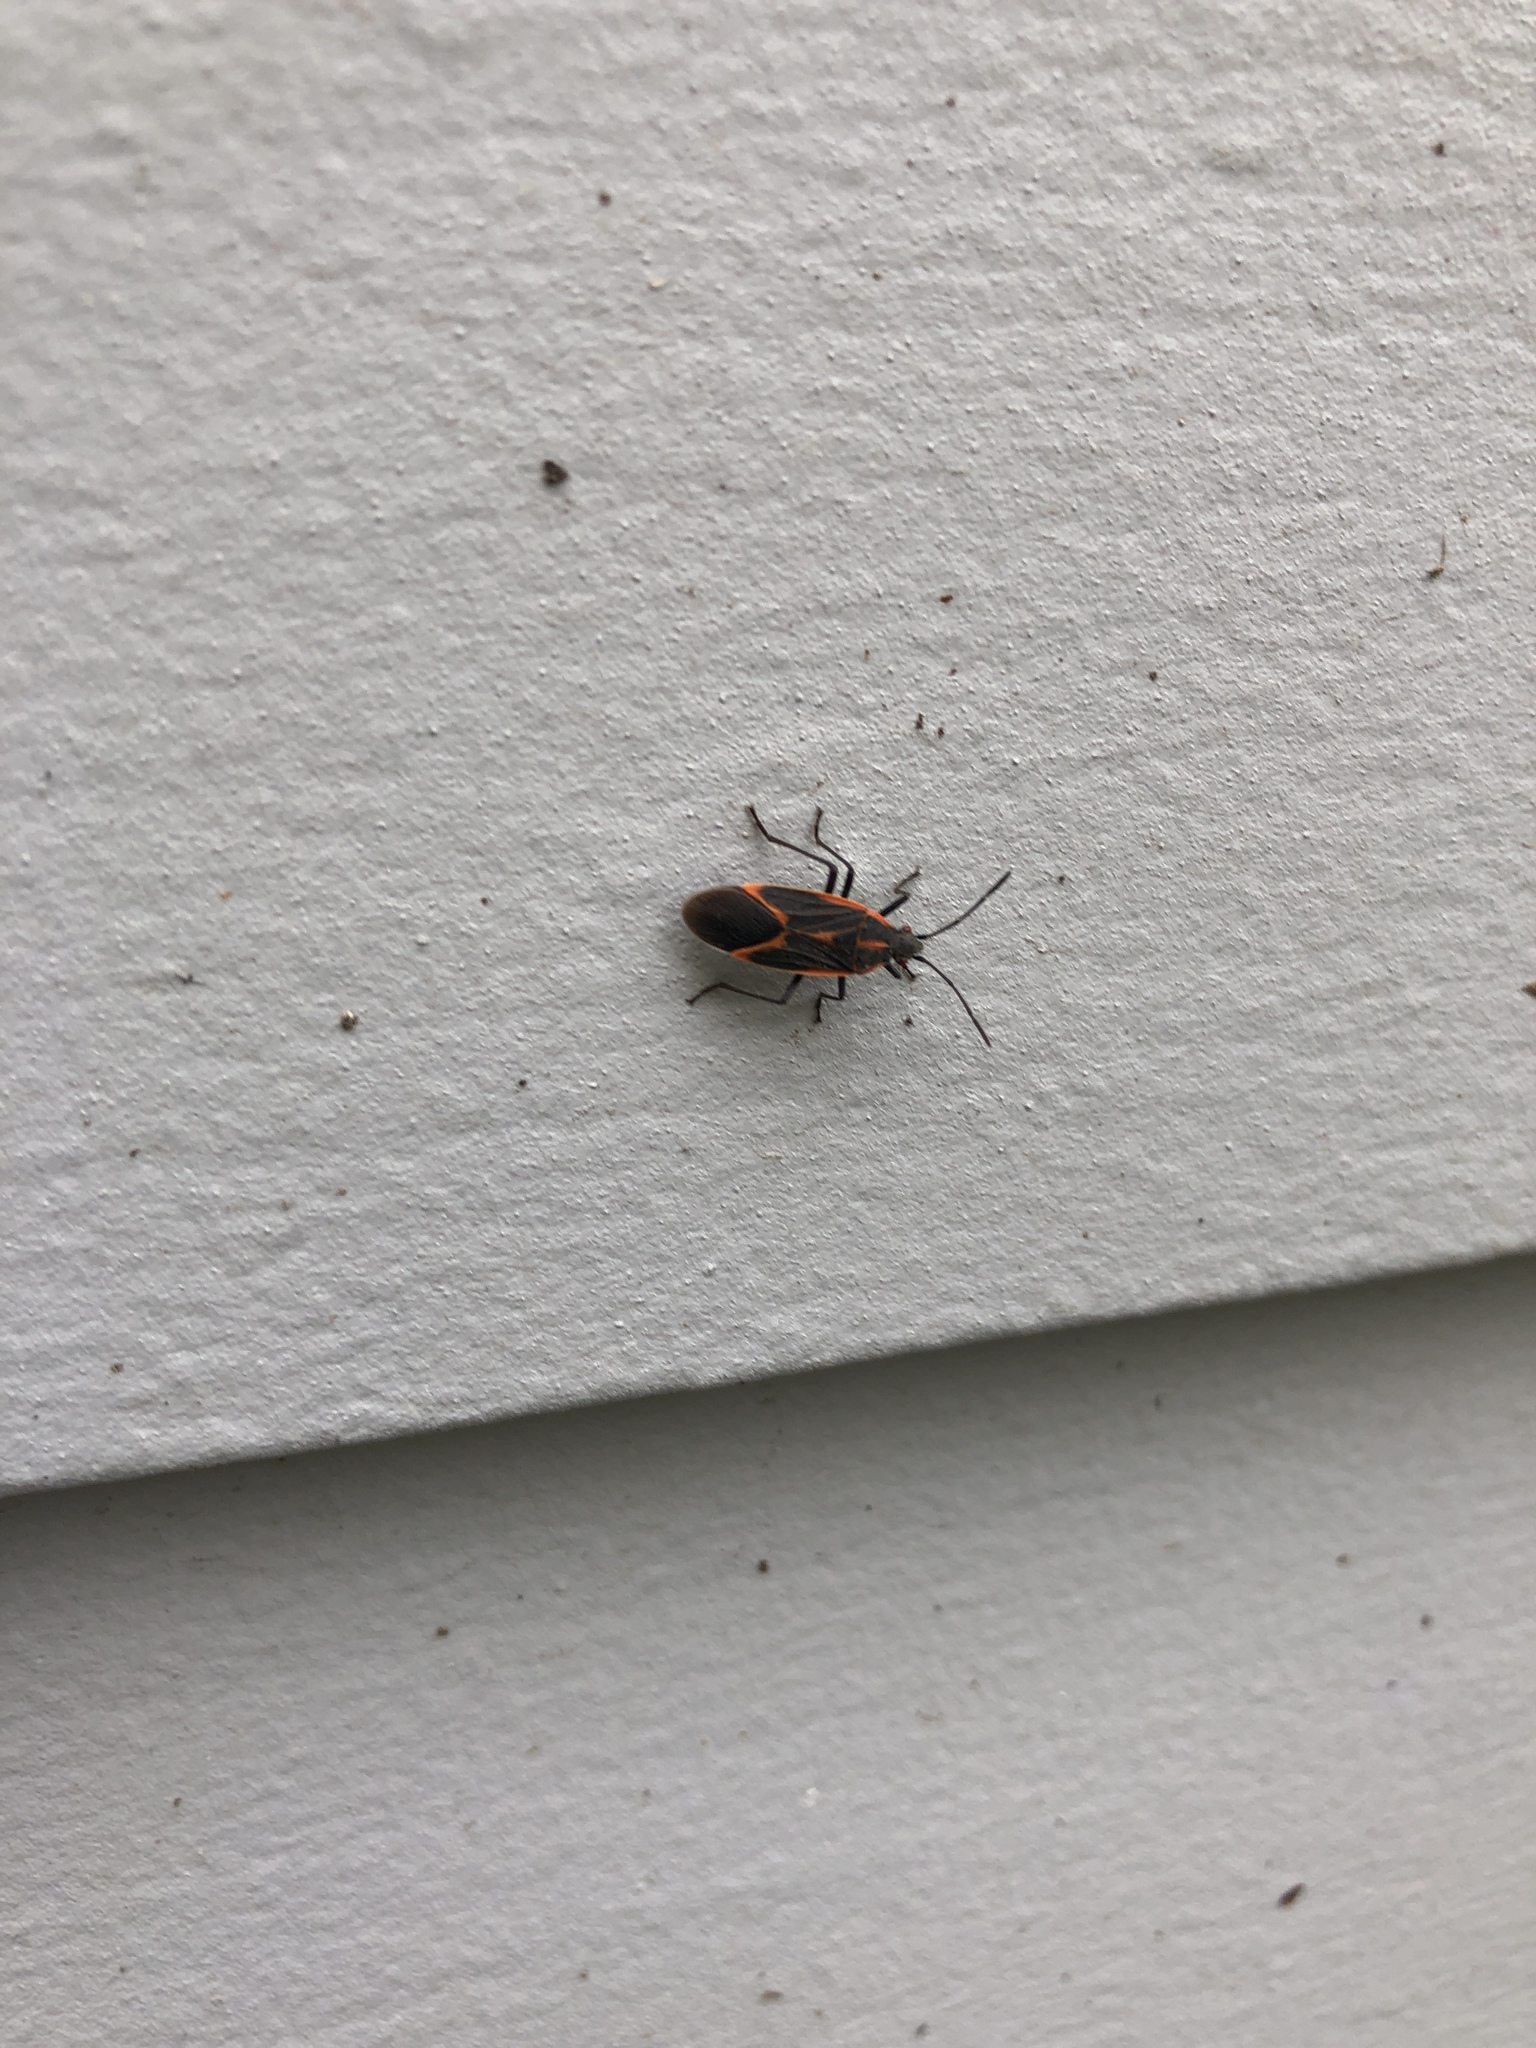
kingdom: Animalia
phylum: Arthropoda
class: Insecta
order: Hemiptera
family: Rhopalidae
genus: Boisea
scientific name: Boisea trivittata
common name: Boxelder bug
